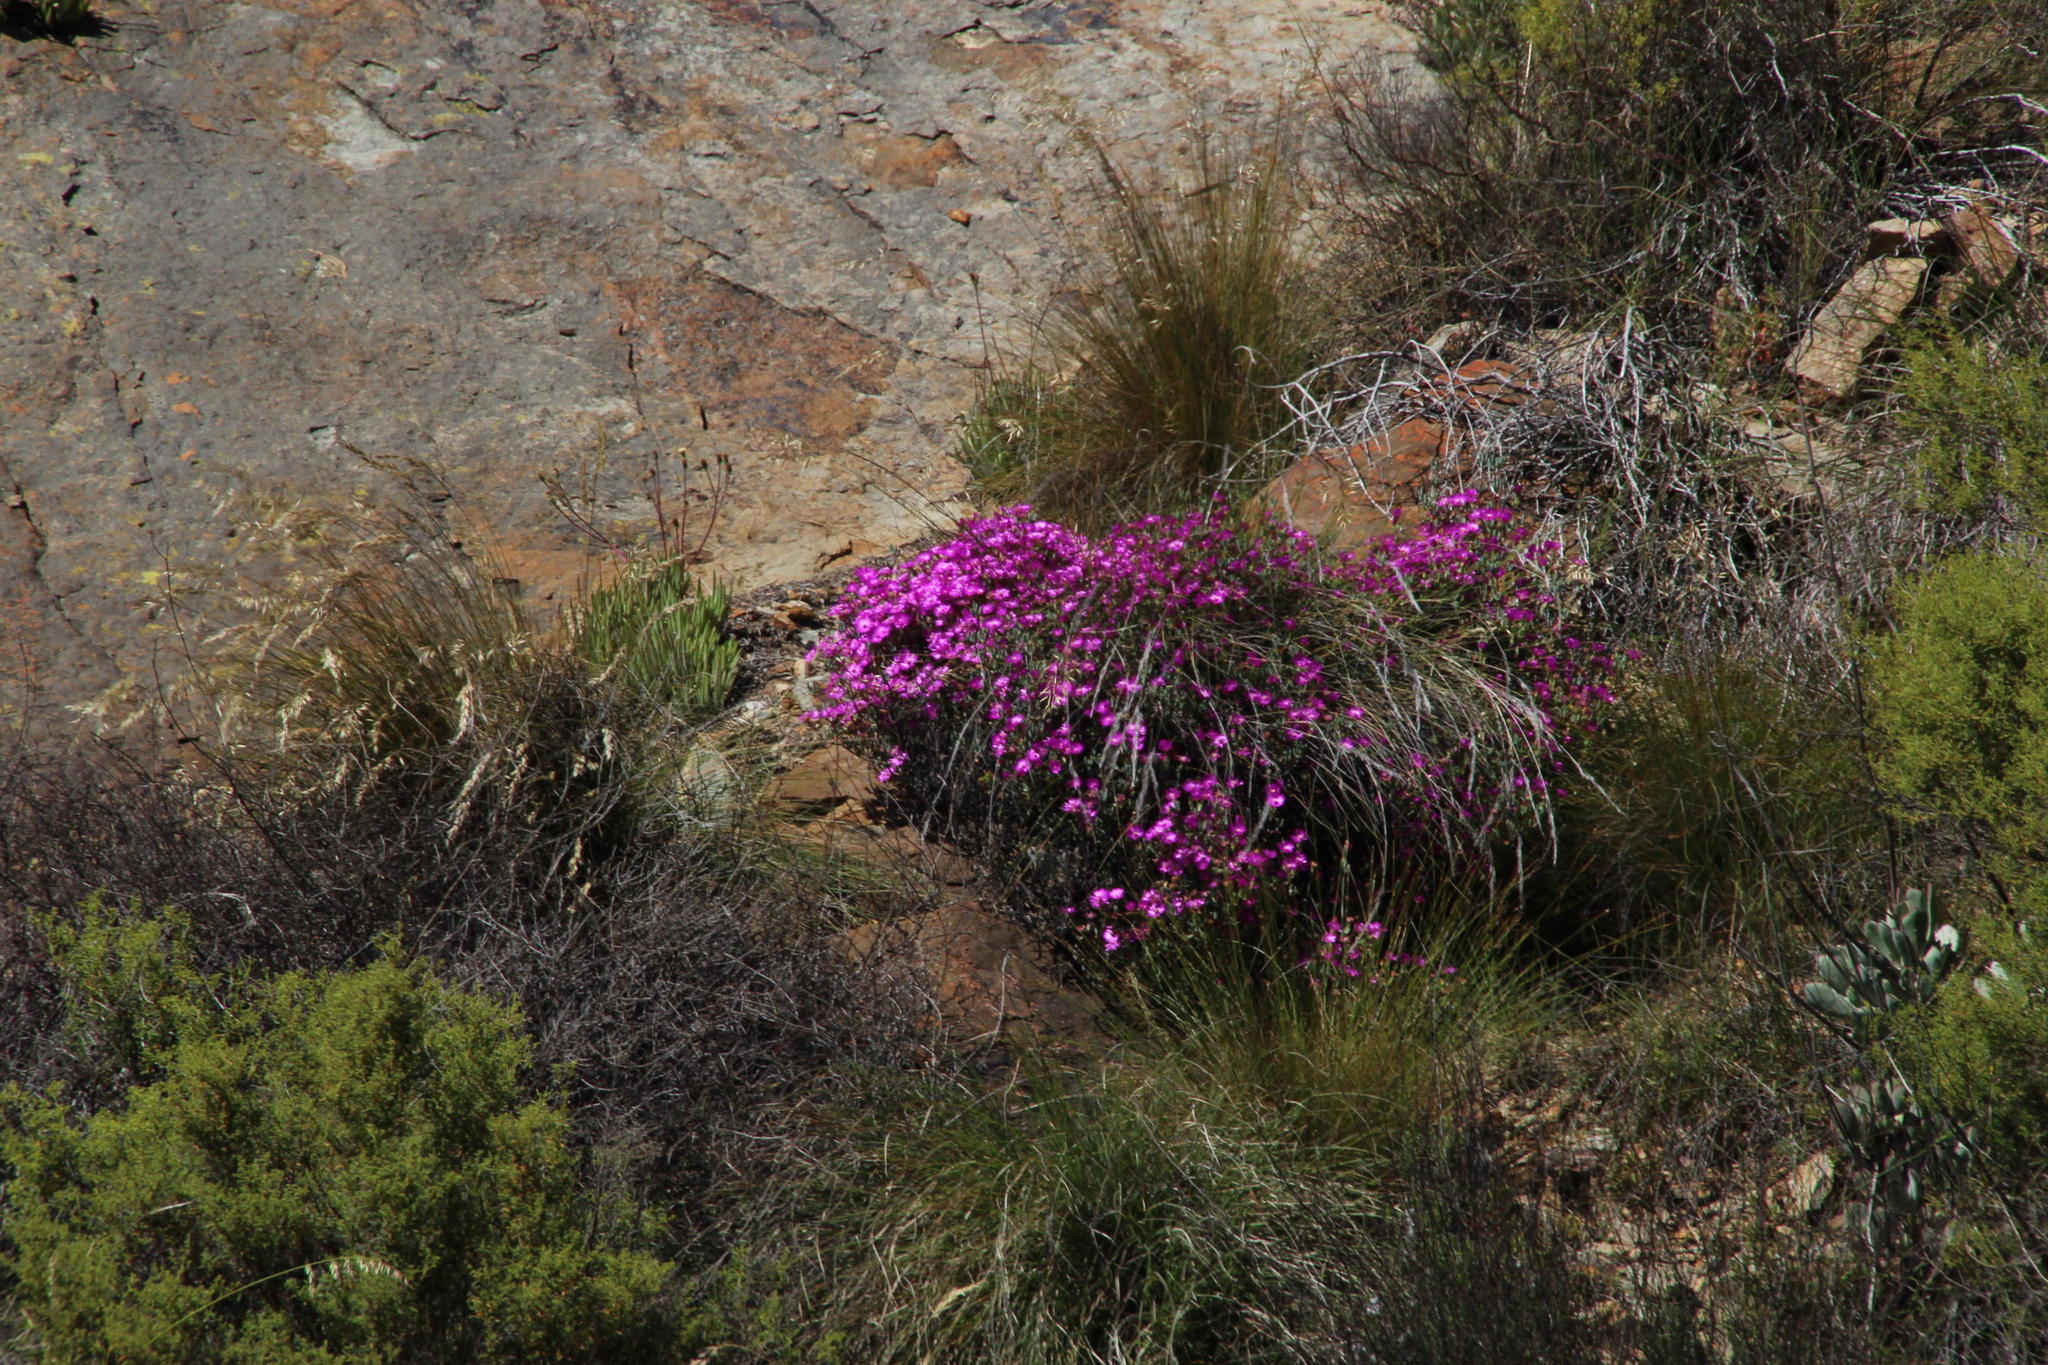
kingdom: Plantae
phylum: Tracheophyta
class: Magnoliopsida
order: Caryophyllales
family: Aizoaceae
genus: Ruschiella
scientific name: Ruschiella argentea
